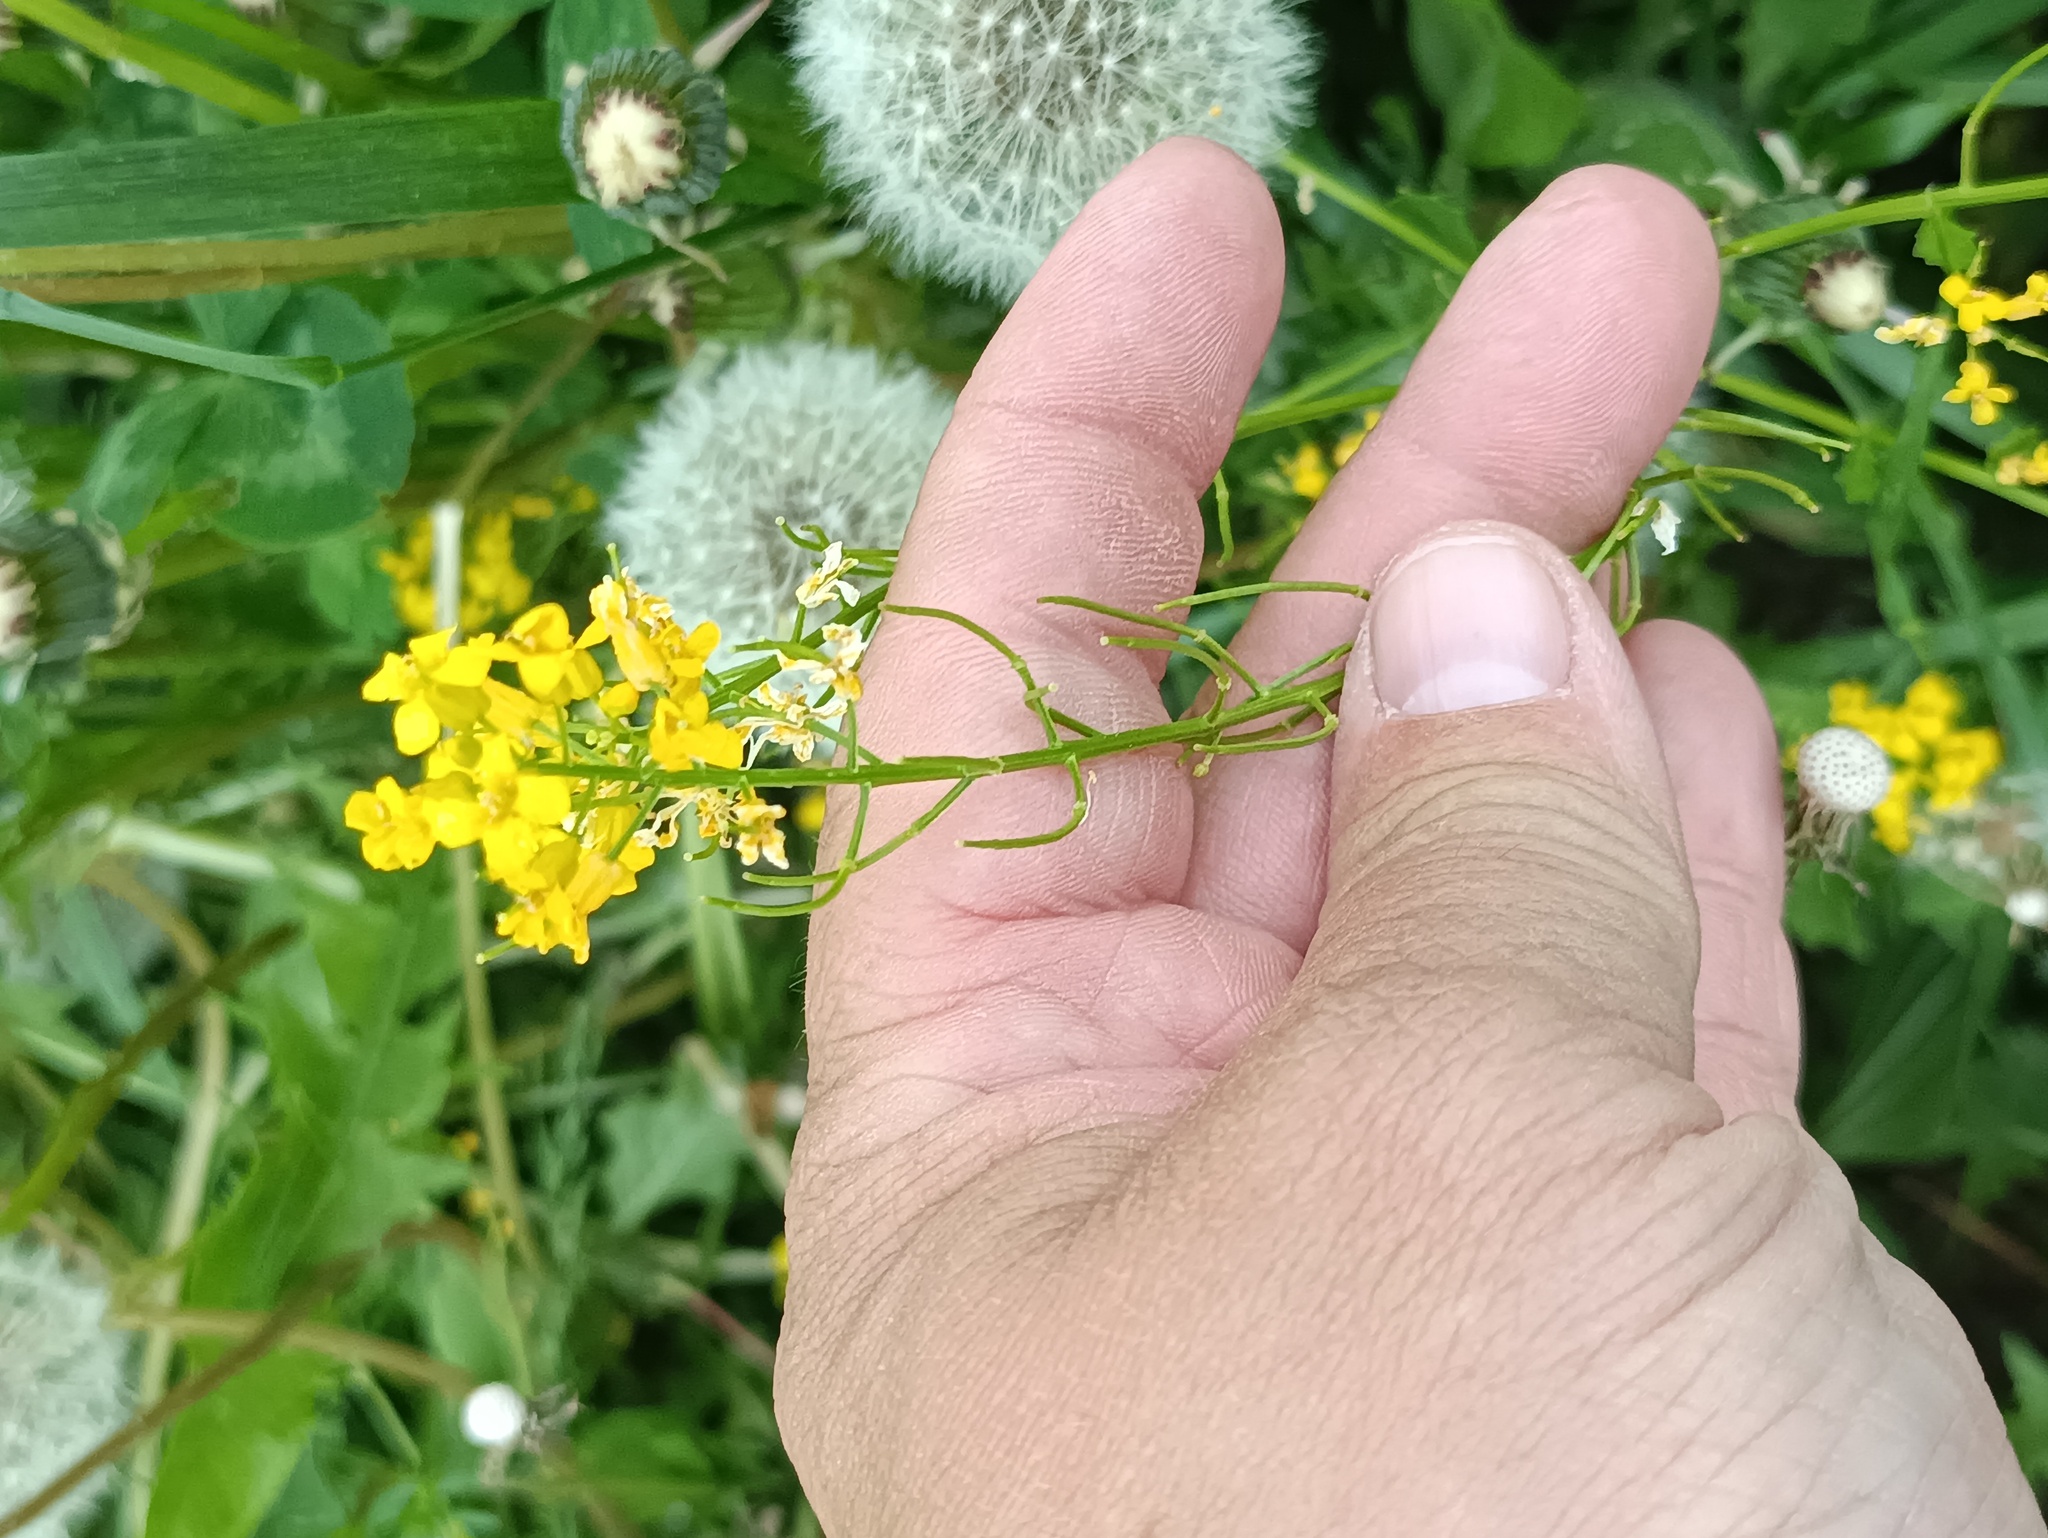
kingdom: Plantae
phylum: Tracheophyta
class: Magnoliopsida
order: Brassicales
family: Brassicaceae
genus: Sisymbrium
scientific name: Sisymbrium loeselii
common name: False london-rocket
